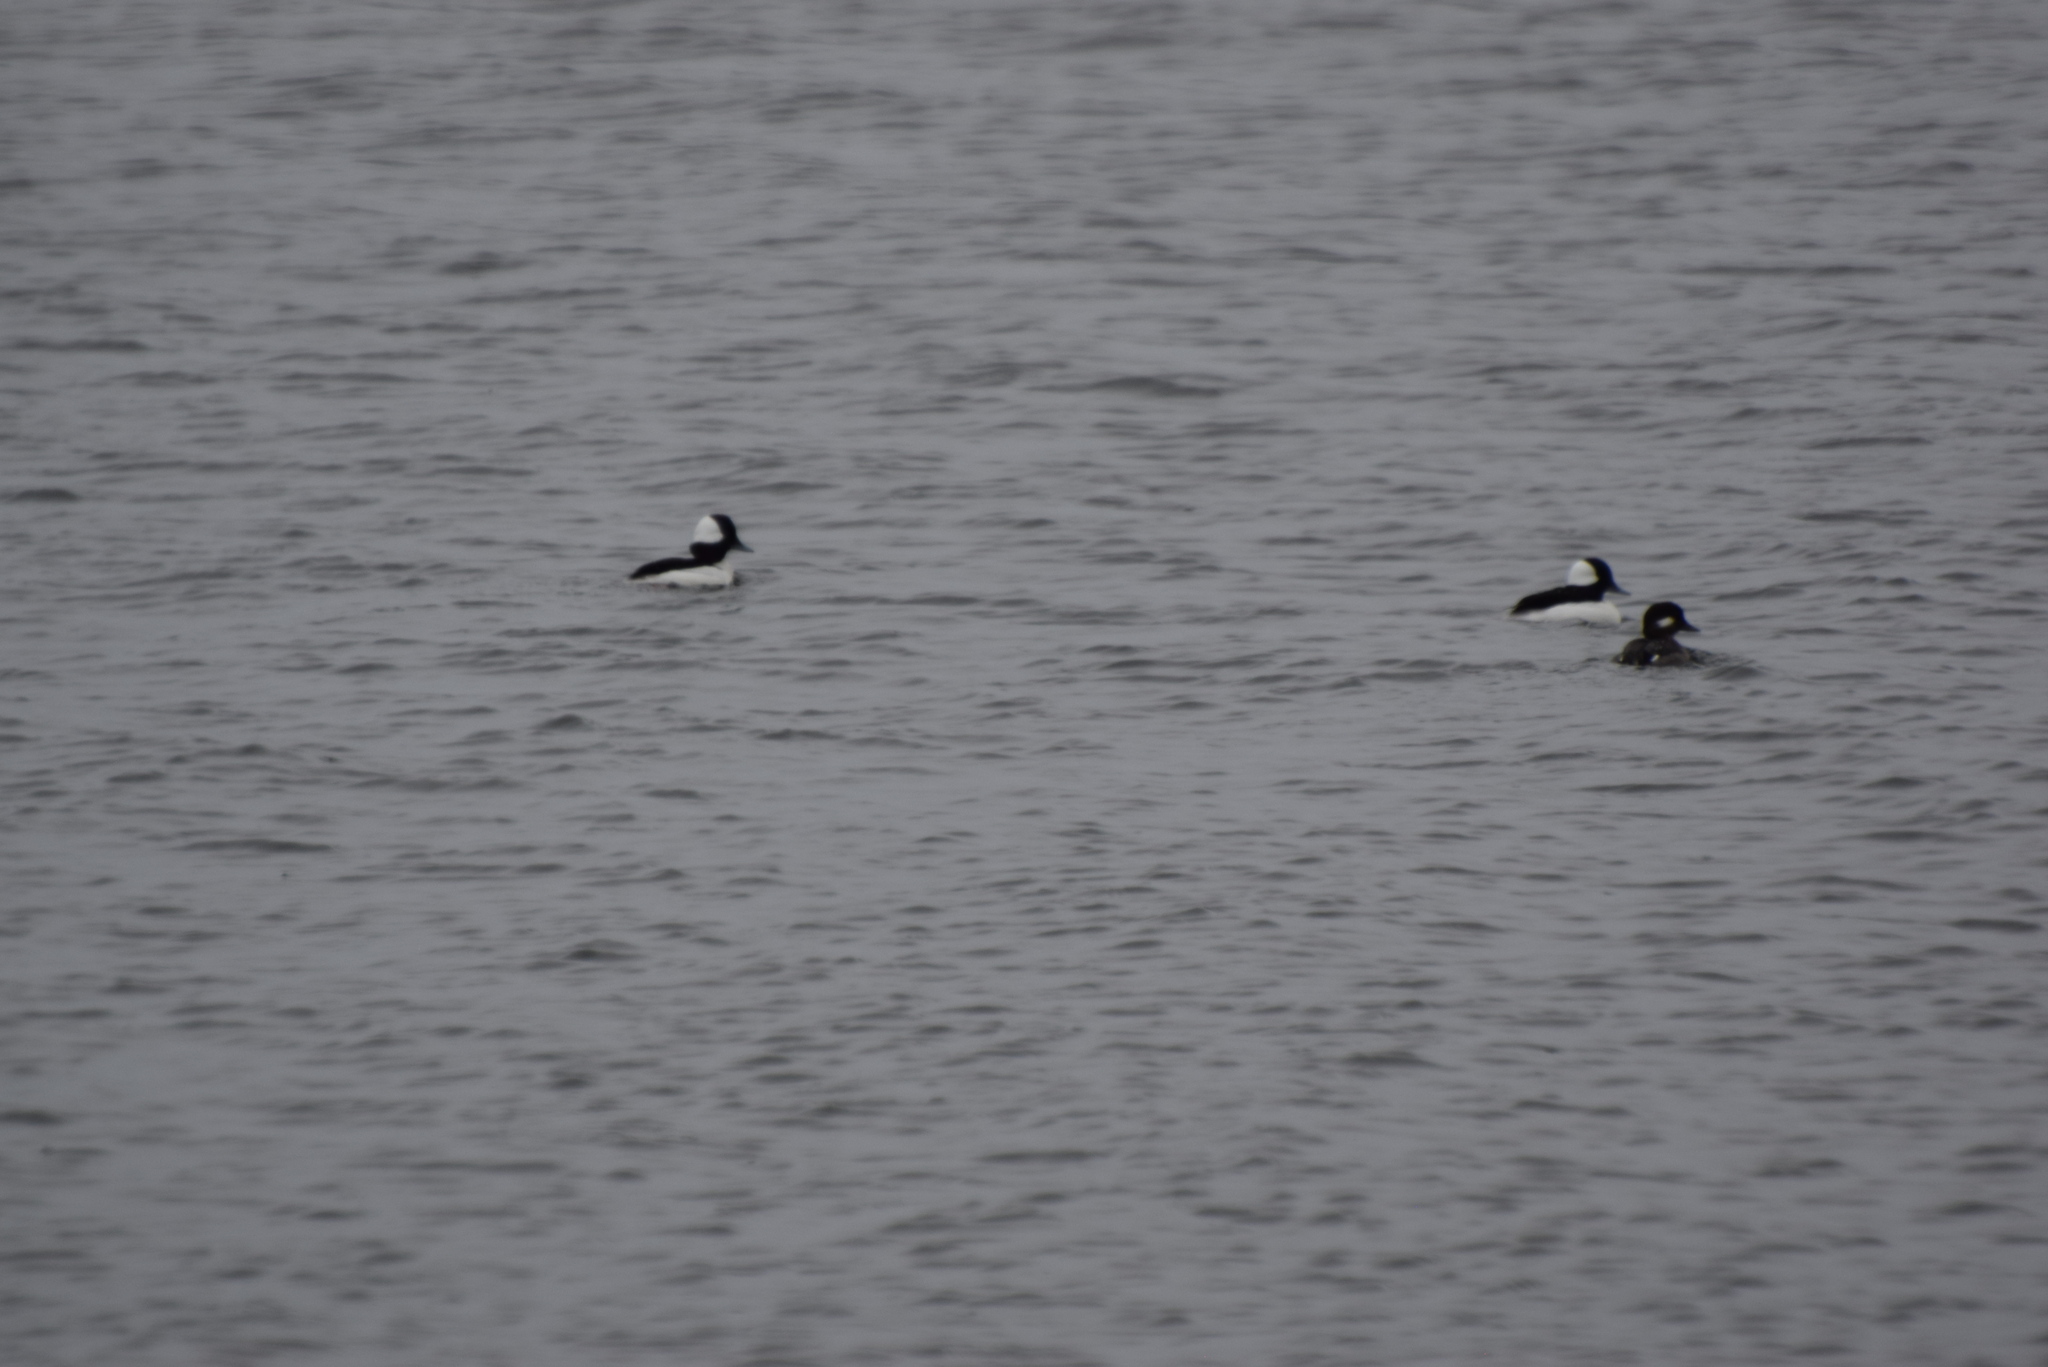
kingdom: Animalia
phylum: Chordata
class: Aves
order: Anseriformes
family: Anatidae
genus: Bucephala
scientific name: Bucephala albeola
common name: Bufflehead
